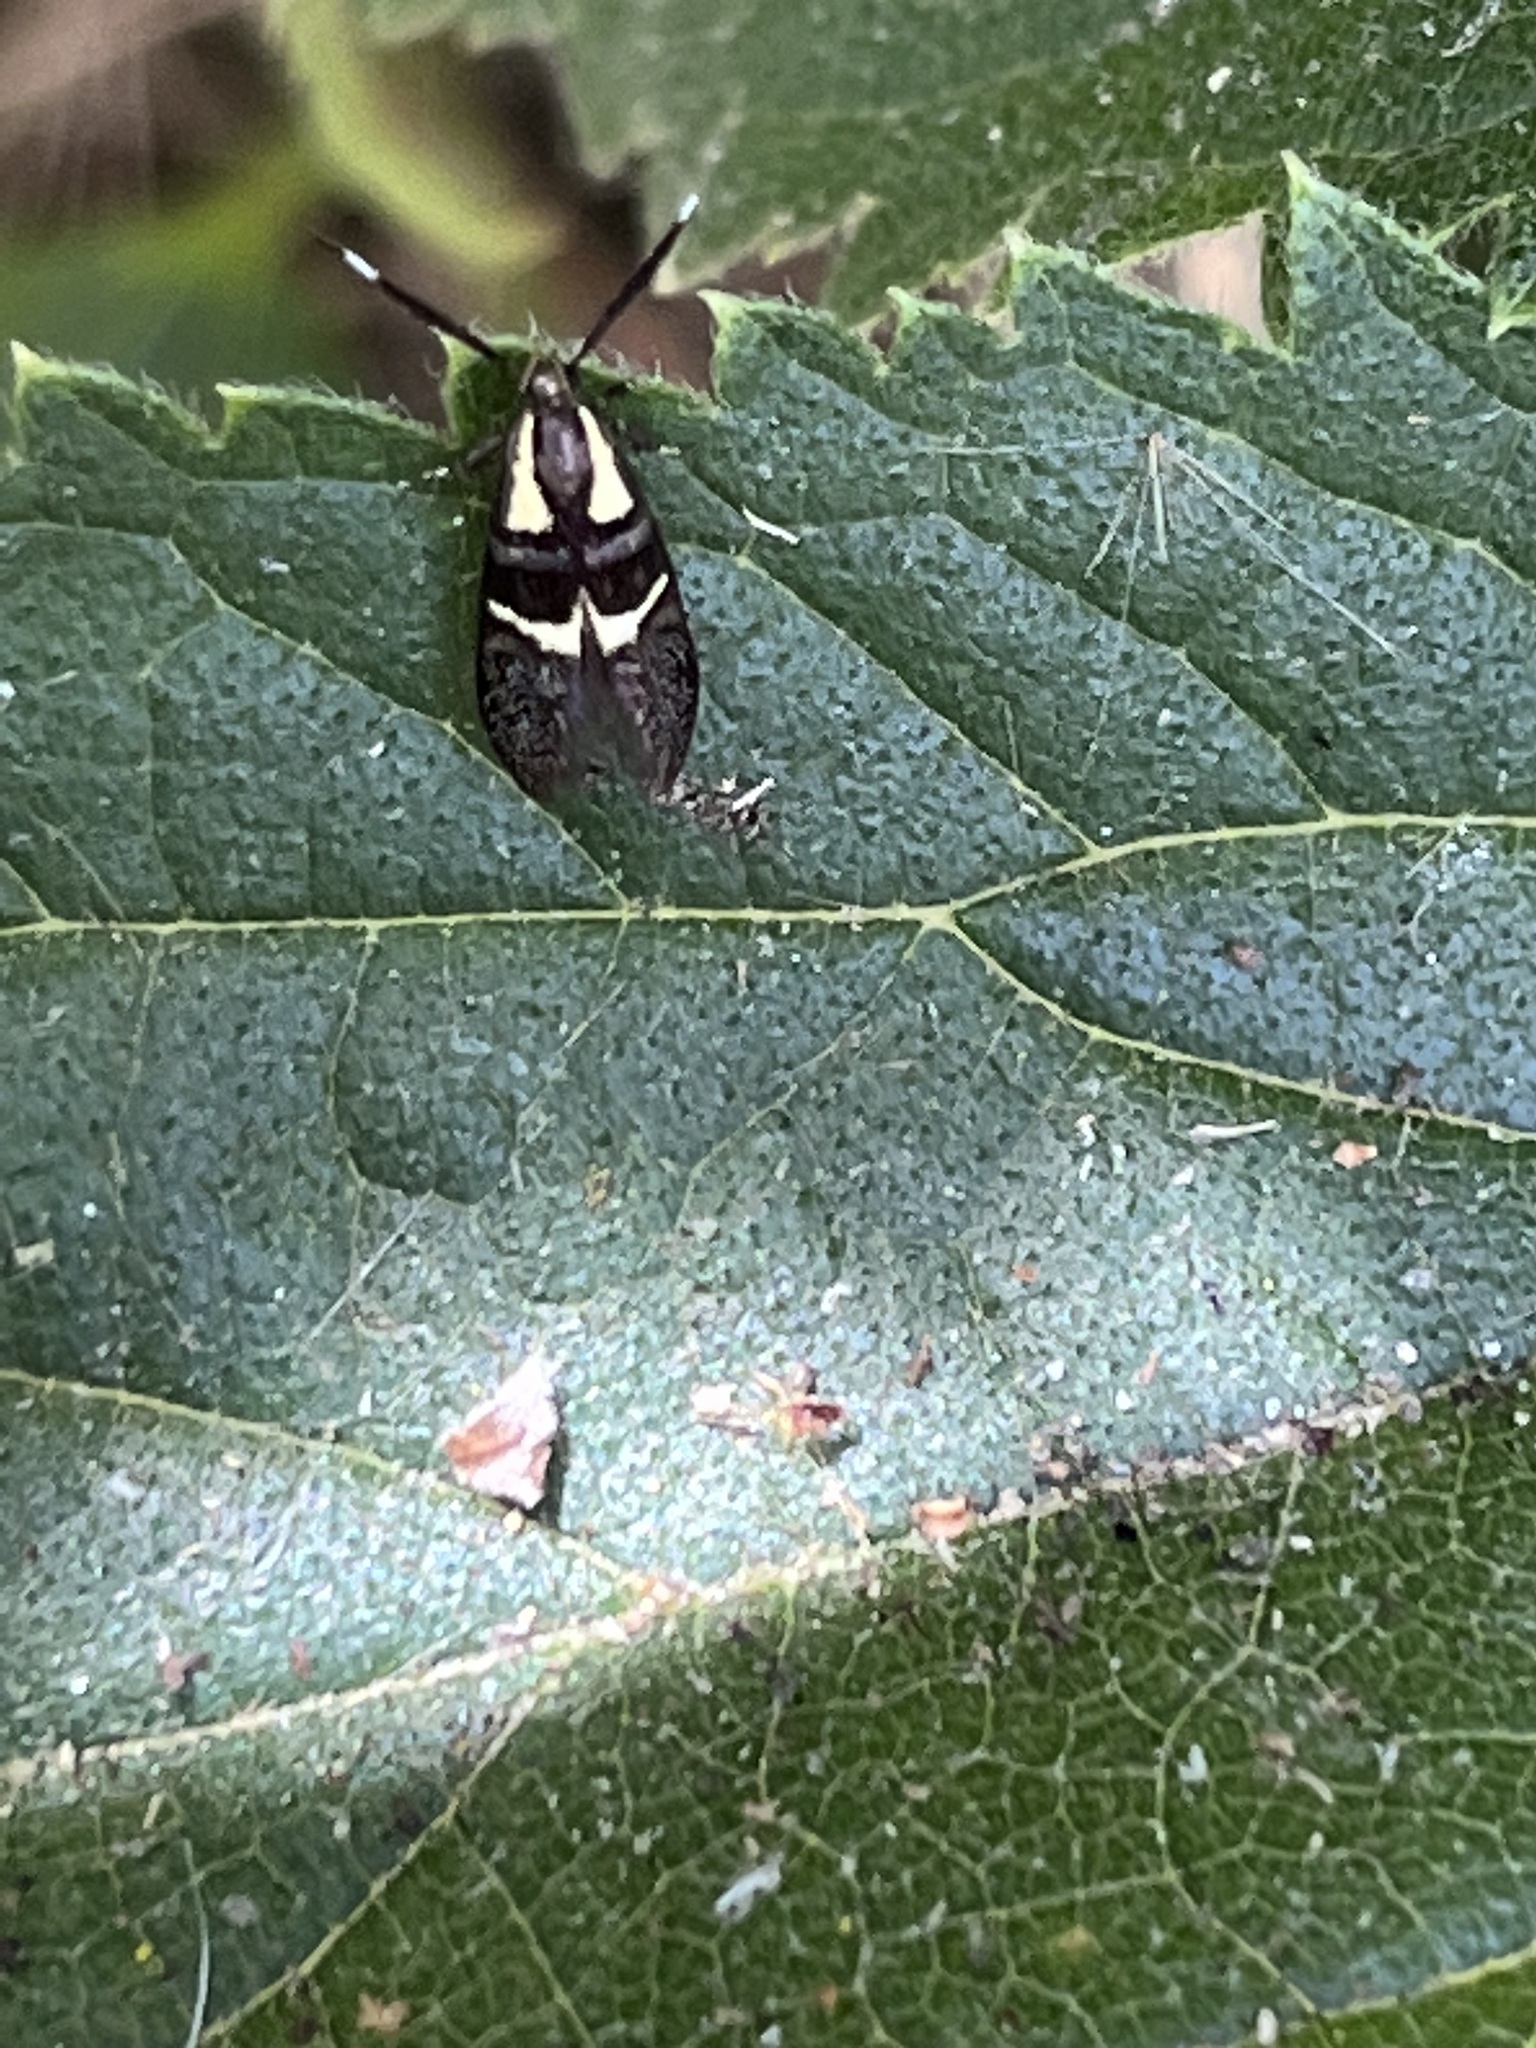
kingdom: Animalia
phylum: Arthropoda
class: Insecta
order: Lepidoptera
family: Oecophoridae
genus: Dafa
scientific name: Dafa oliviella
